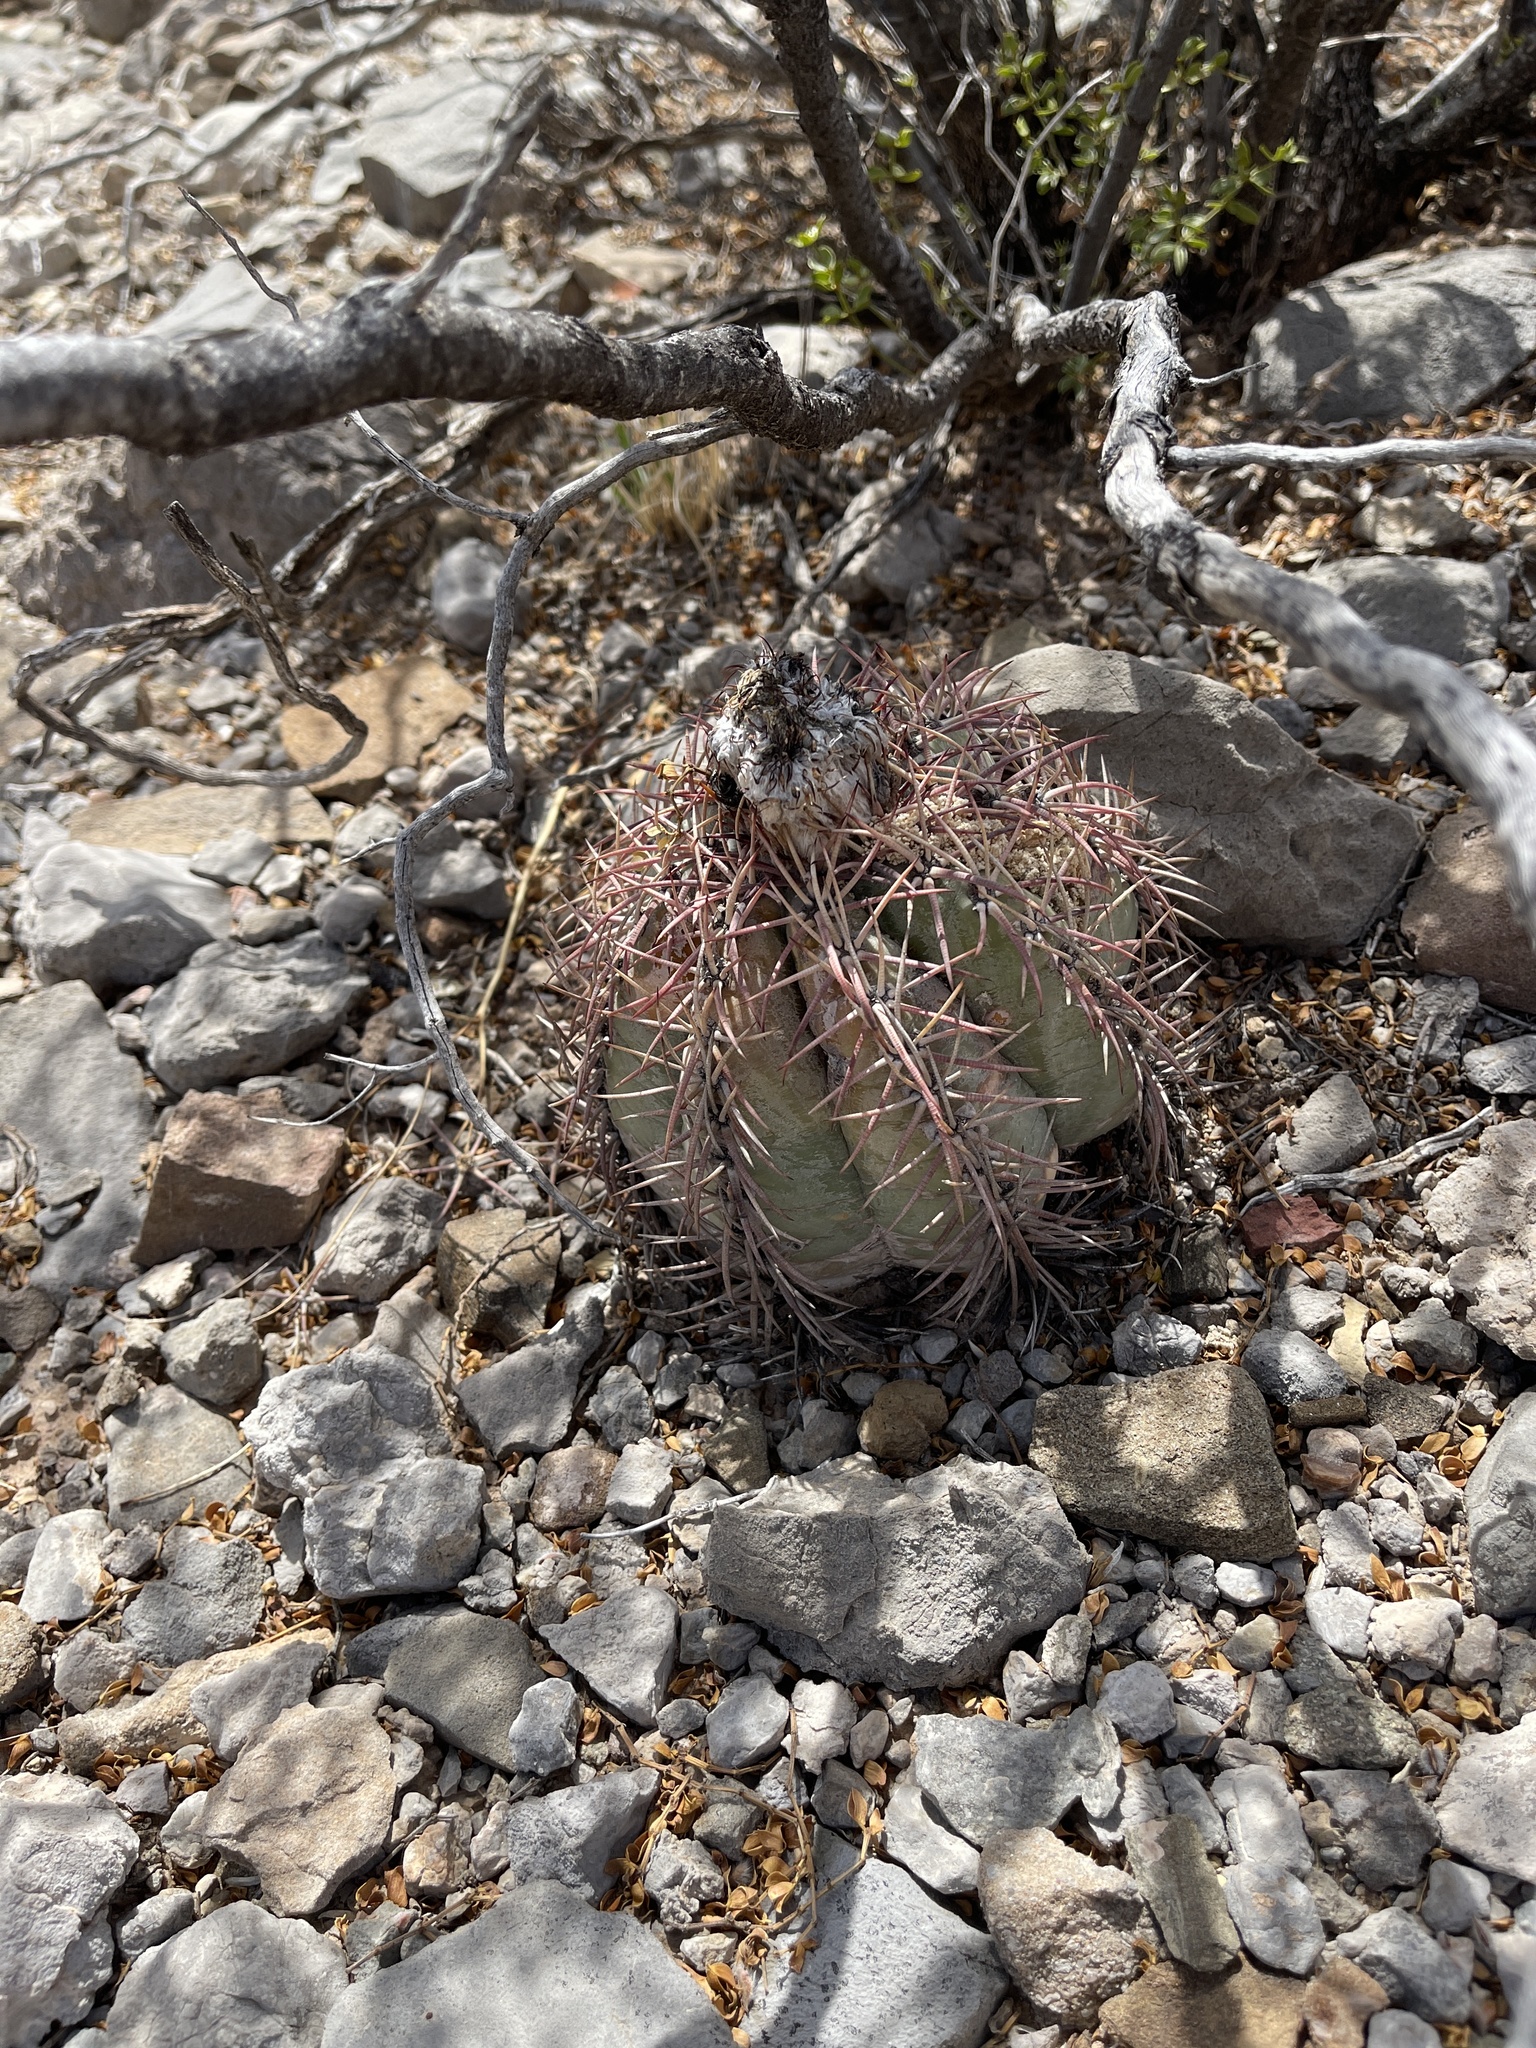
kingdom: Plantae
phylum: Tracheophyta
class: Magnoliopsida
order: Caryophyllales
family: Cactaceae
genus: Echinocactus
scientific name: Echinocactus horizonthalonius
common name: Devilshead
